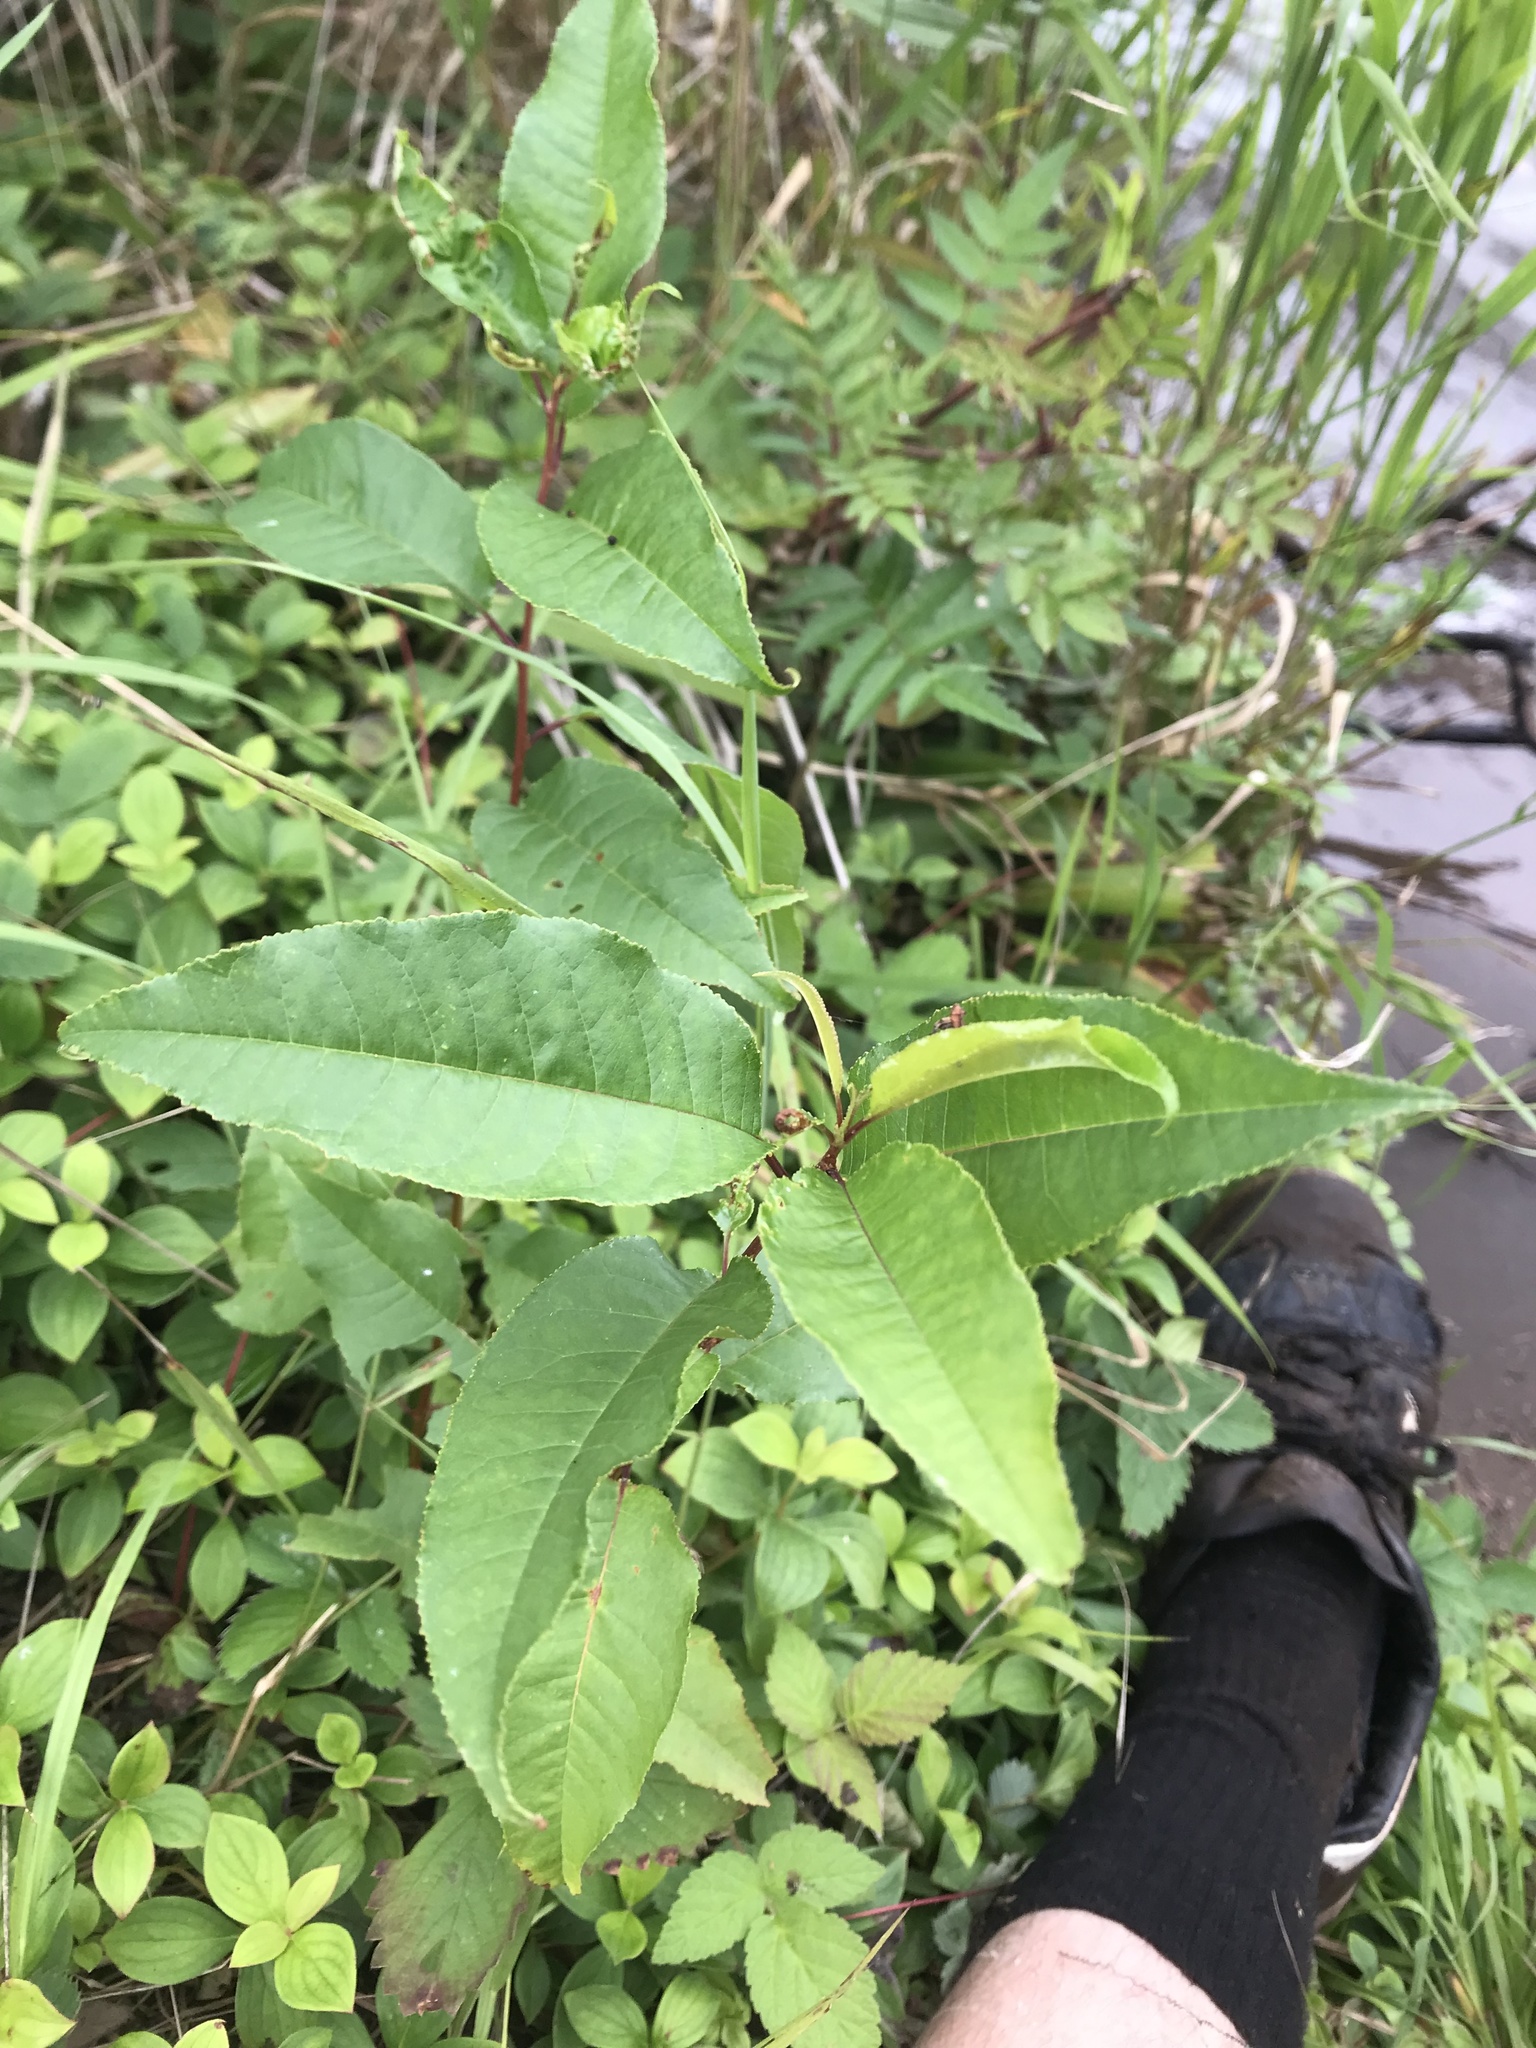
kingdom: Plantae
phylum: Tracheophyta
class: Magnoliopsida
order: Rosales
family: Rosaceae
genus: Prunus
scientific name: Prunus pensylvanica
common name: Pin cherry
